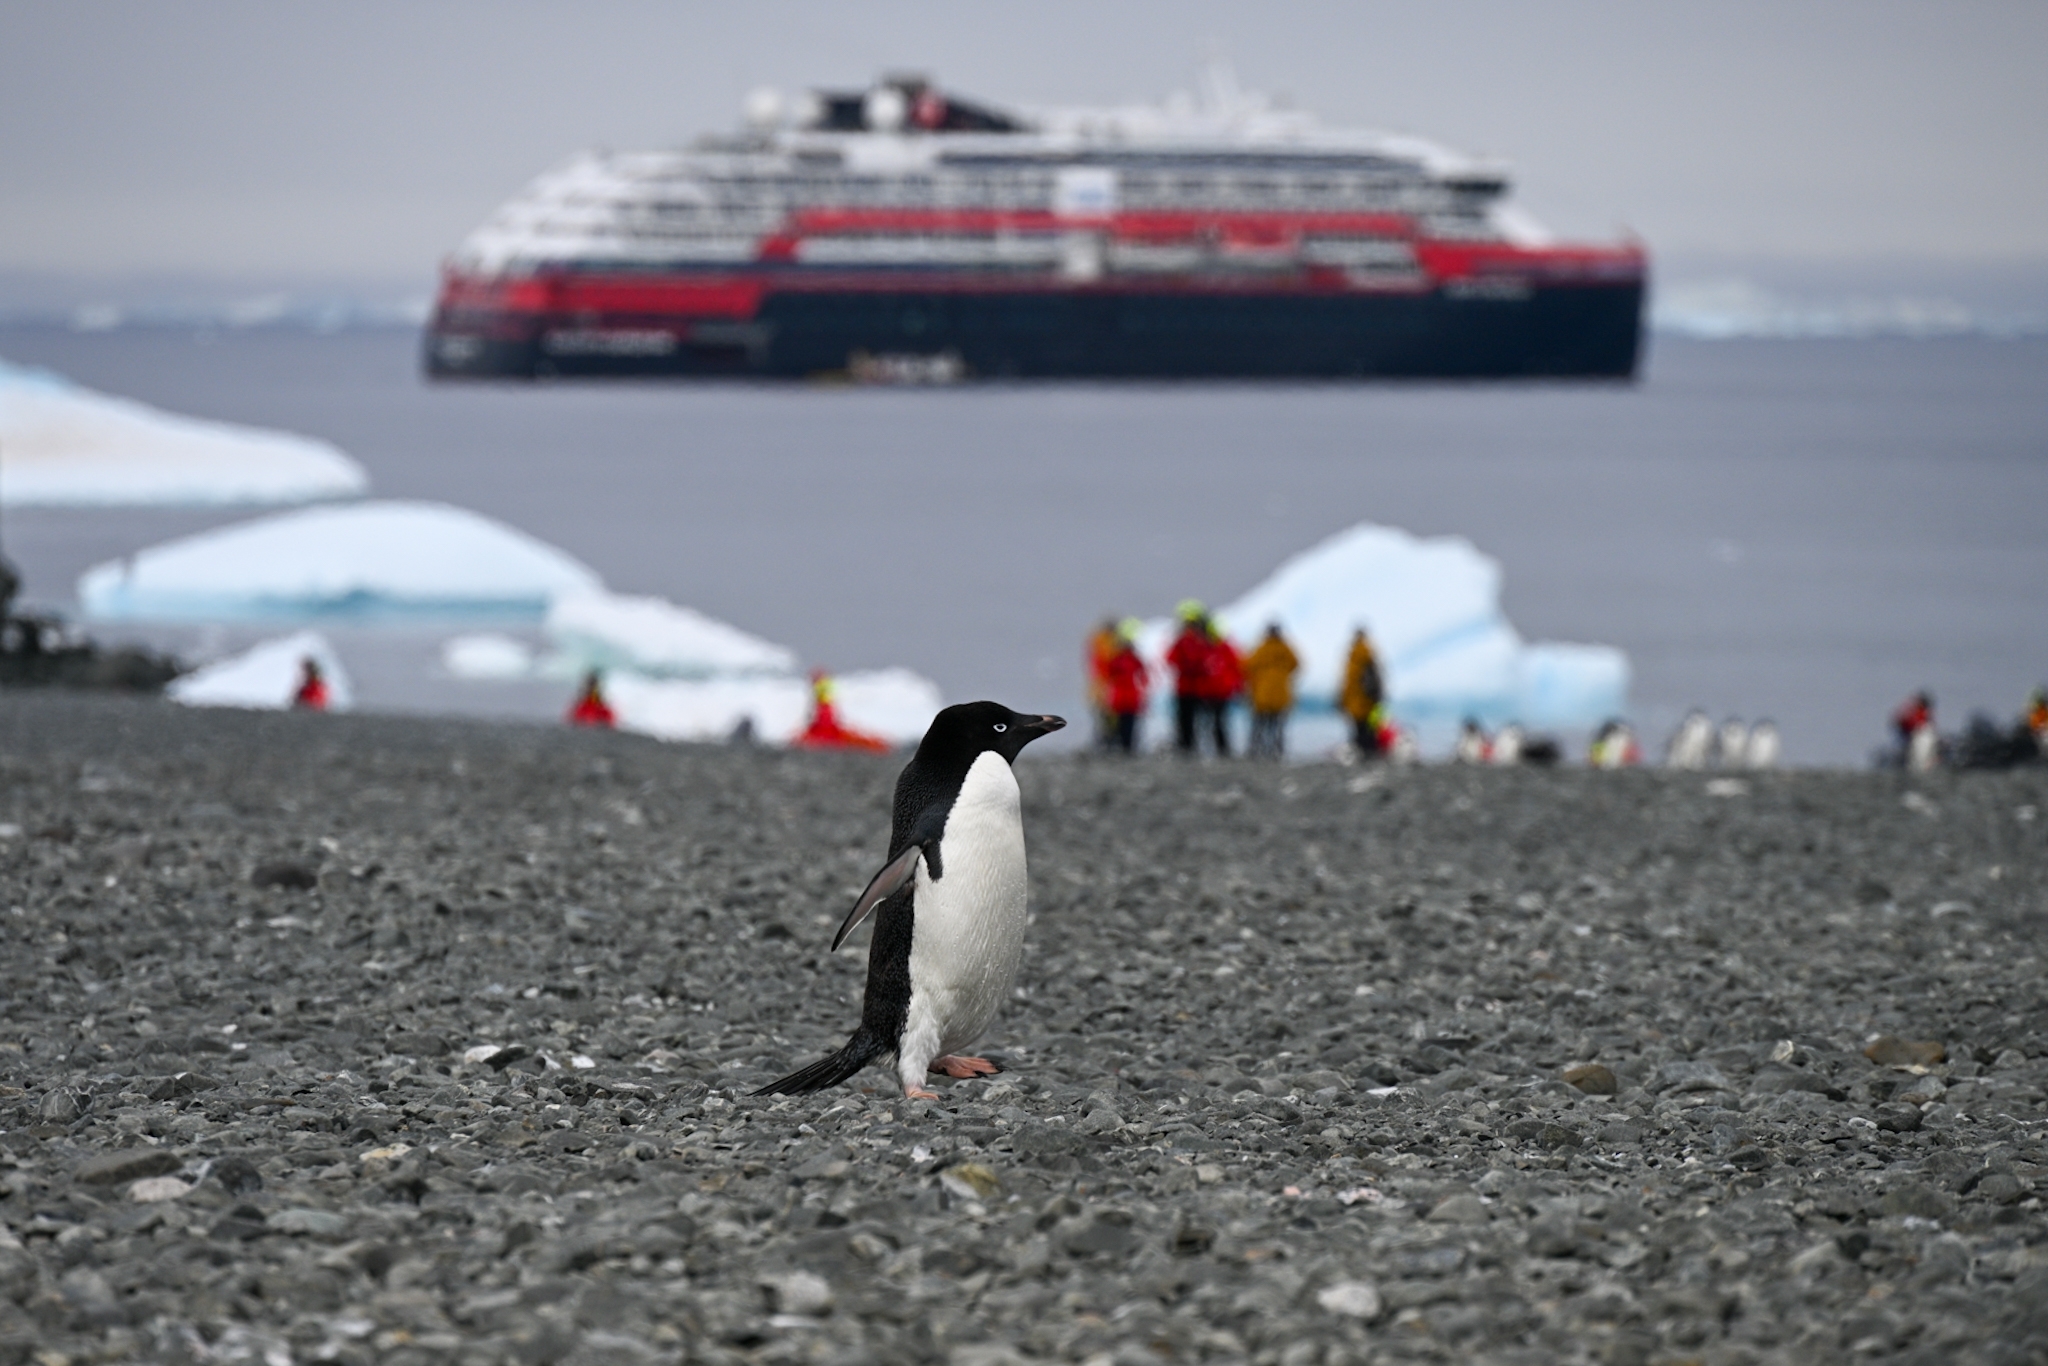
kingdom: Animalia
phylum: Chordata
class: Aves
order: Sphenisciformes
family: Spheniscidae
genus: Pygoscelis
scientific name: Pygoscelis adeliae
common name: Adelie penguin
